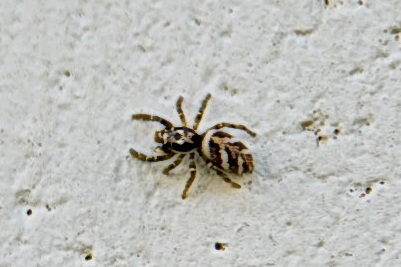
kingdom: Animalia
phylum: Arthropoda
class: Arachnida
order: Araneae
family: Salticidae
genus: Salticus
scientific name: Salticus scenicus
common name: Zebra jumper
